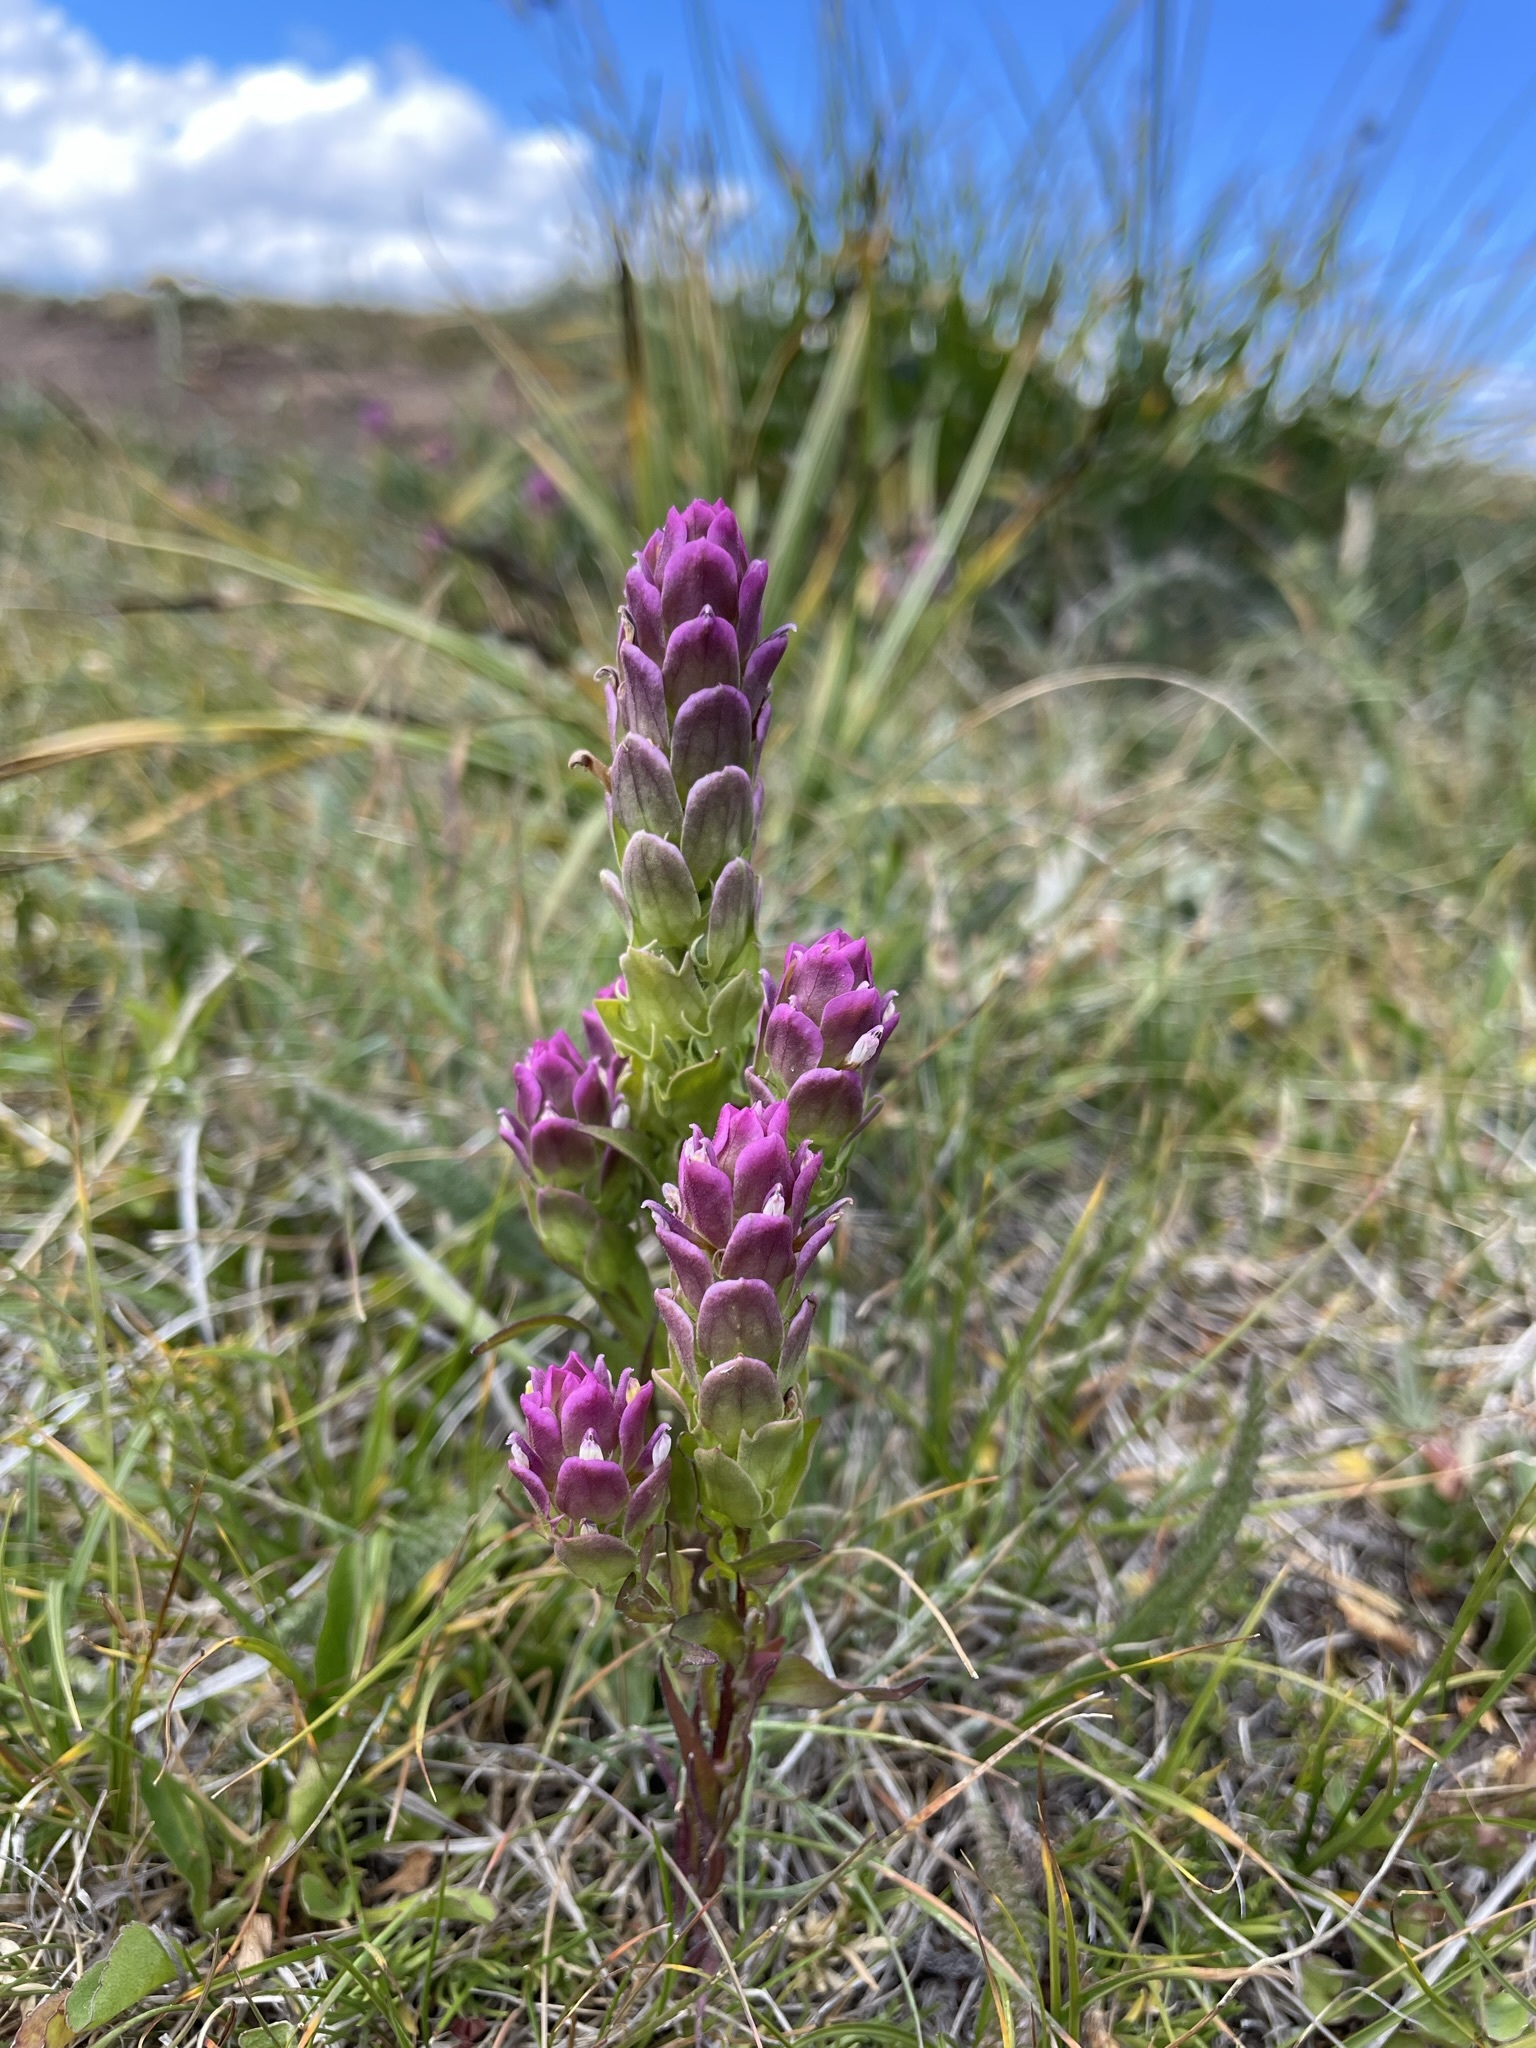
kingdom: Plantae
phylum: Tracheophyta
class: Magnoliopsida
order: Lamiales
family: Orobanchaceae
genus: Orthocarpus
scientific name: Orthocarpus imbricatus
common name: Mountain owl's-clover
